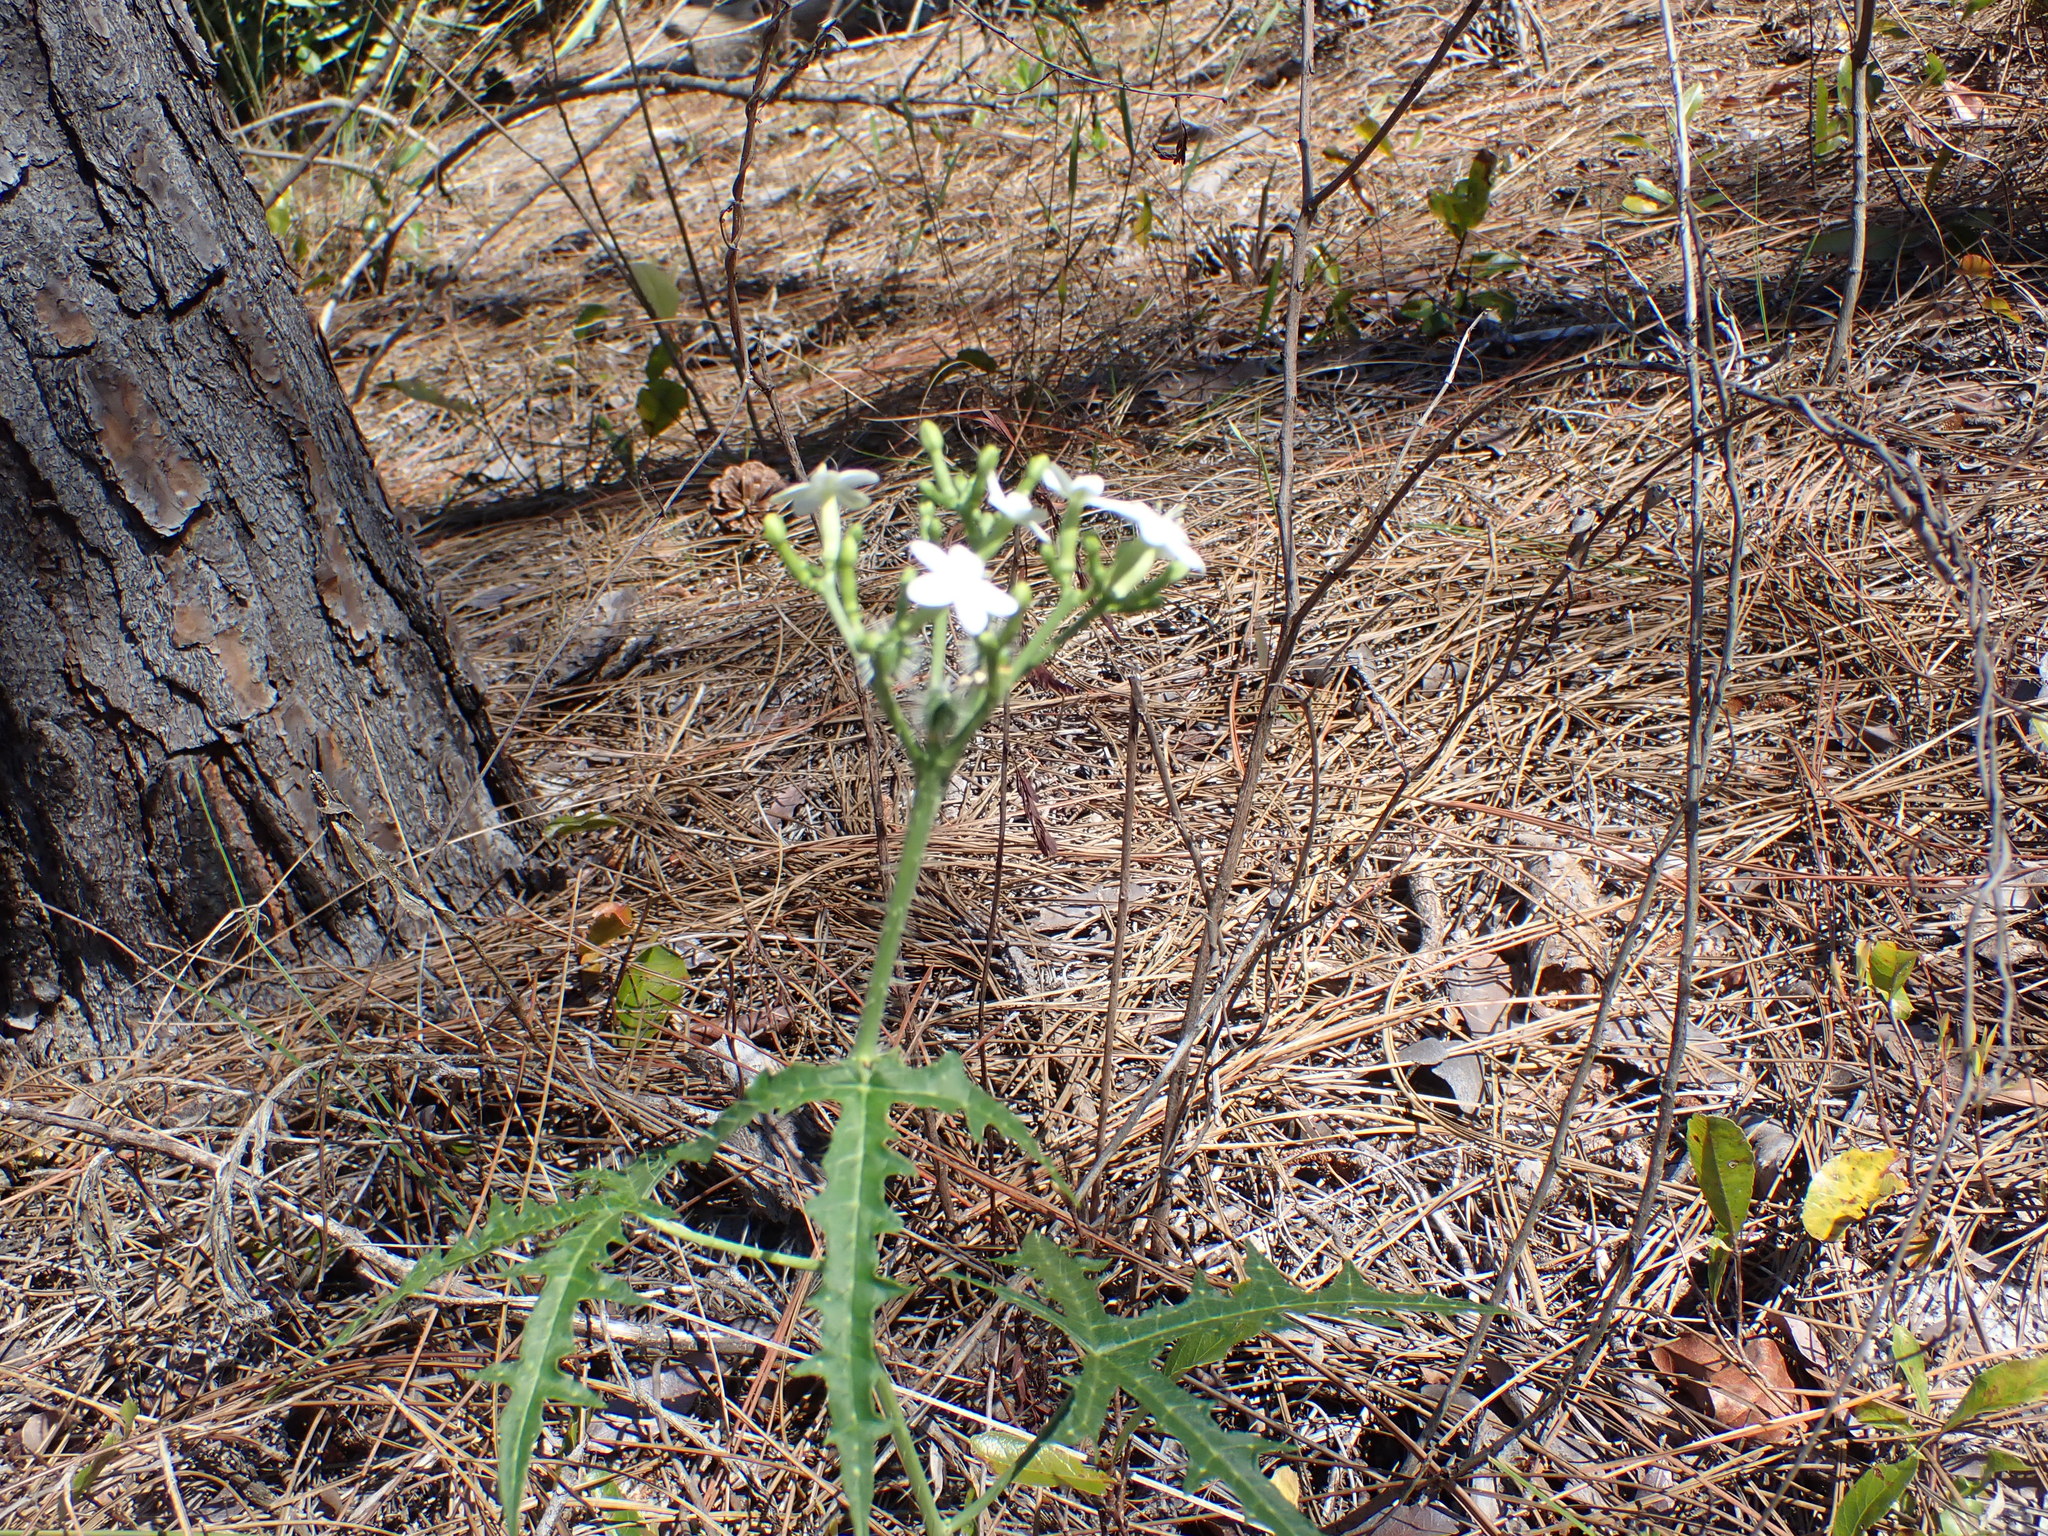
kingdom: Plantae
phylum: Tracheophyta
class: Magnoliopsida
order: Malpighiales
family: Euphorbiaceae
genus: Cnidoscolus
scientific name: Cnidoscolus stimulosus
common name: Bull-nettle
